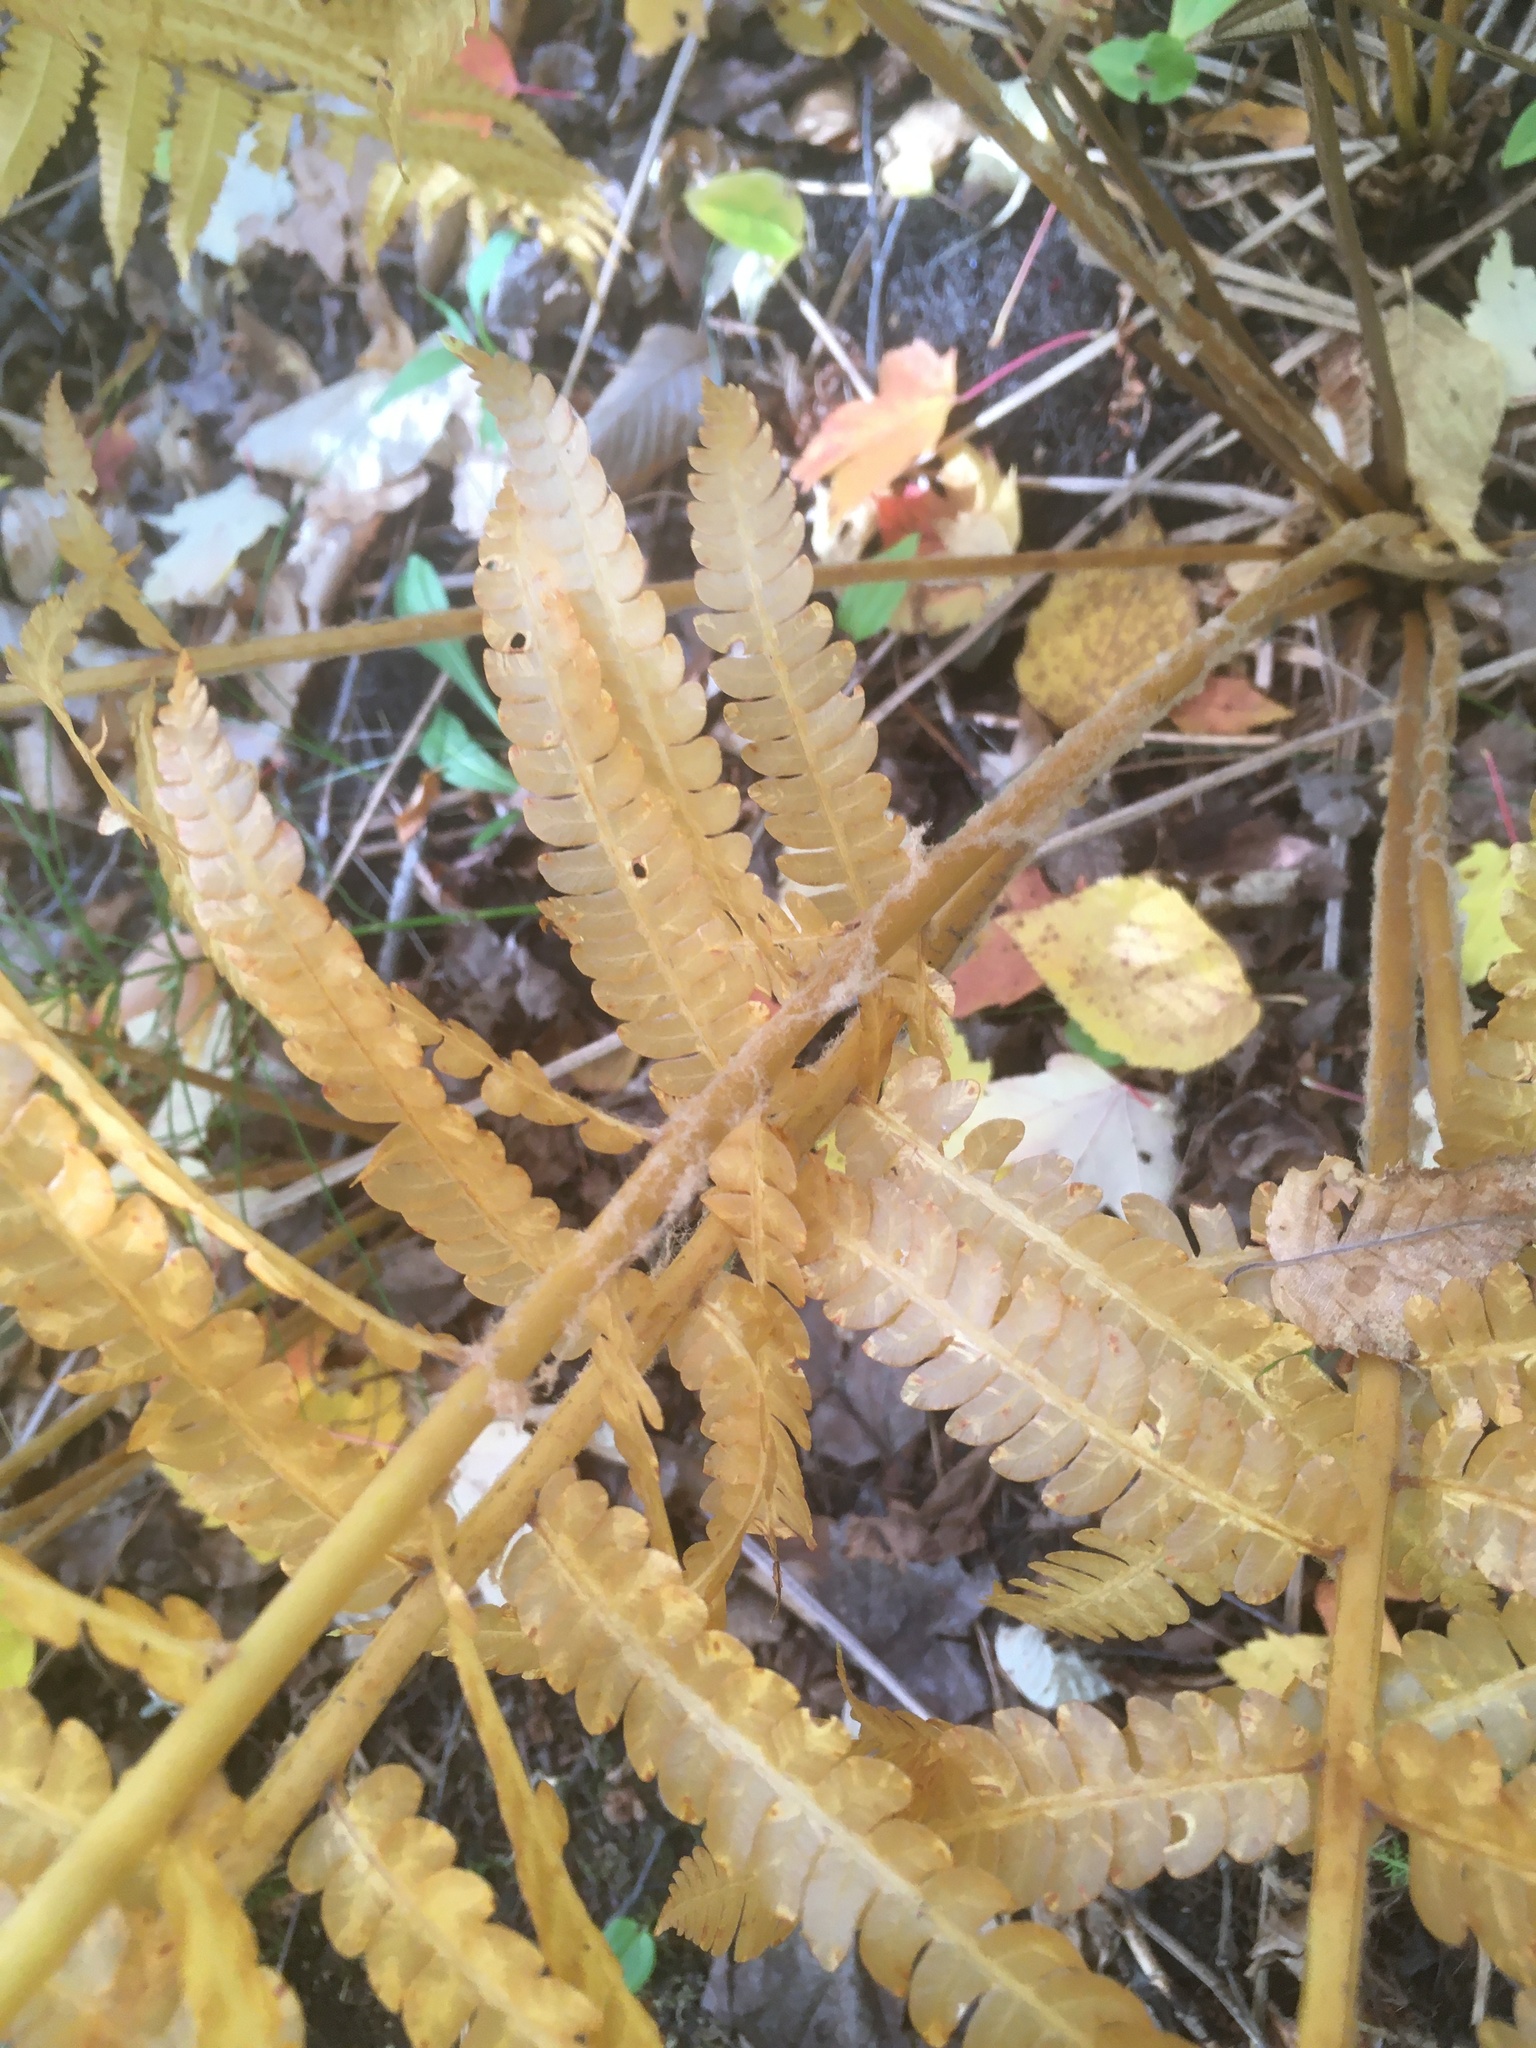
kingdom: Plantae
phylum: Tracheophyta
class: Polypodiopsida
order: Osmundales
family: Osmundaceae
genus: Osmundastrum
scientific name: Osmundastrum cinnamomeum
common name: Cinnamon fern
